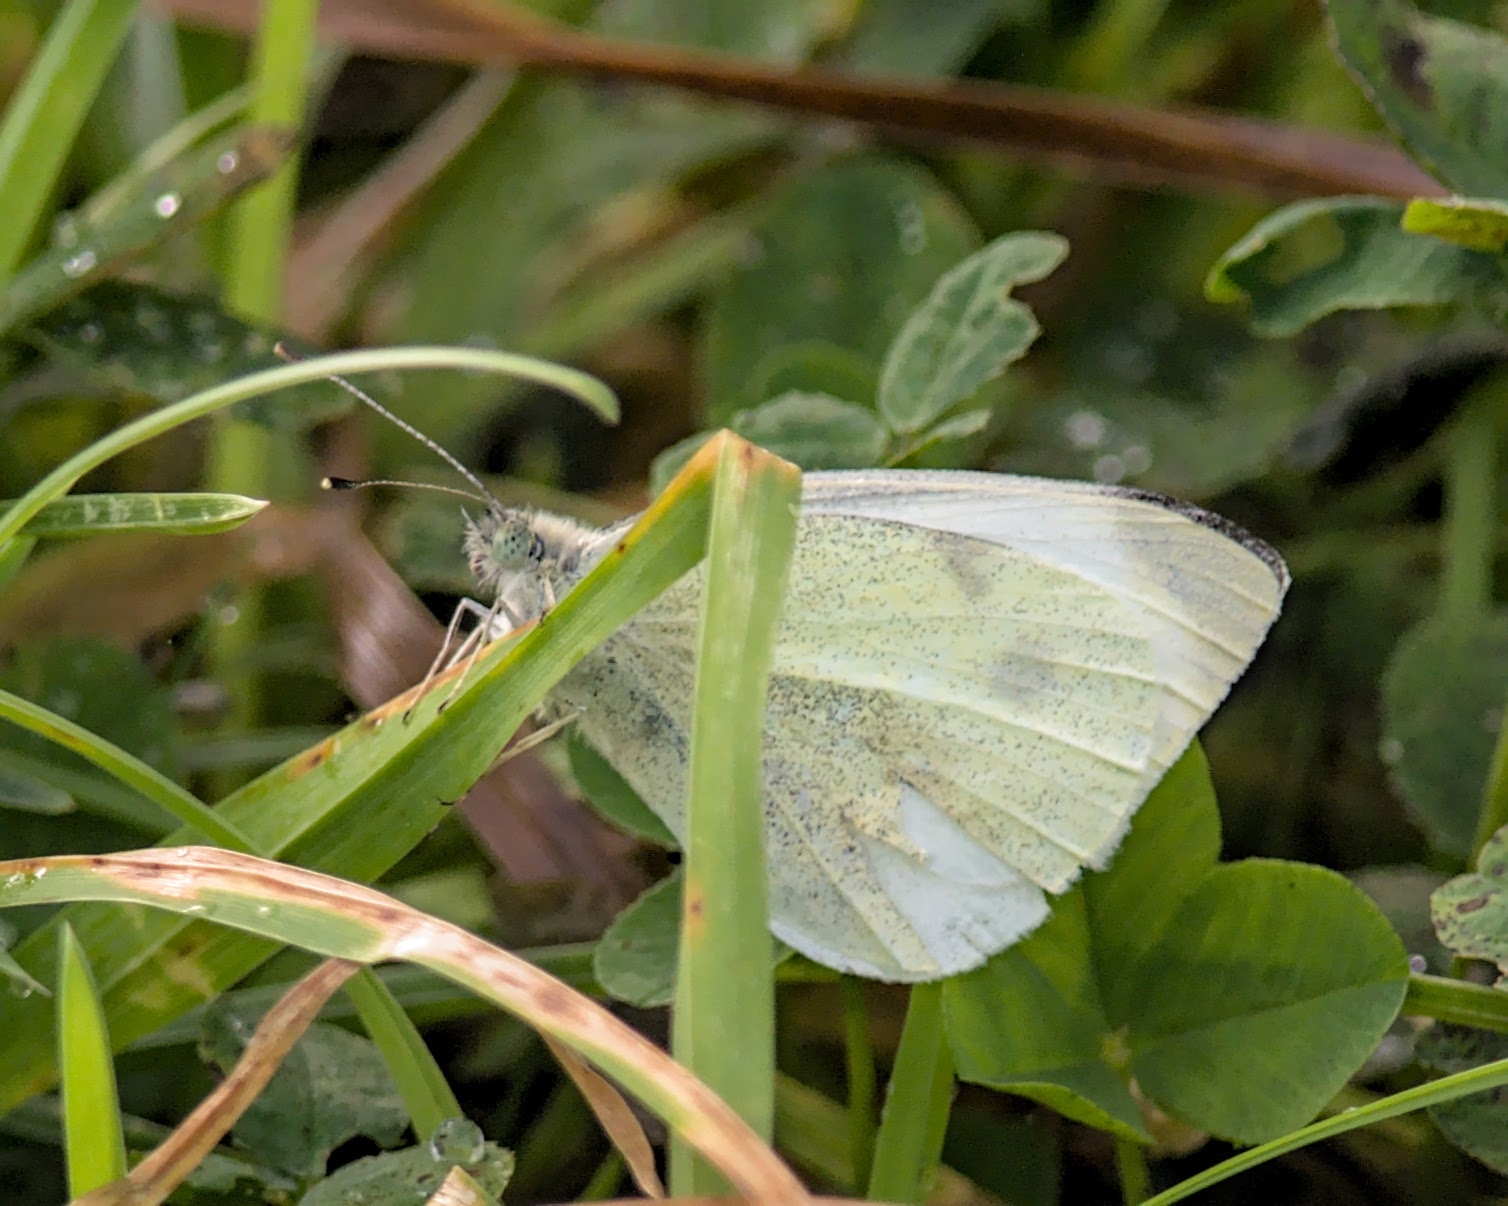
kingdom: Animalia
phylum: Arthropoda
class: Insecta
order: Lepidoptera
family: Pieridae
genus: Pieris
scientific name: Pieris rapae
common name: Small white
